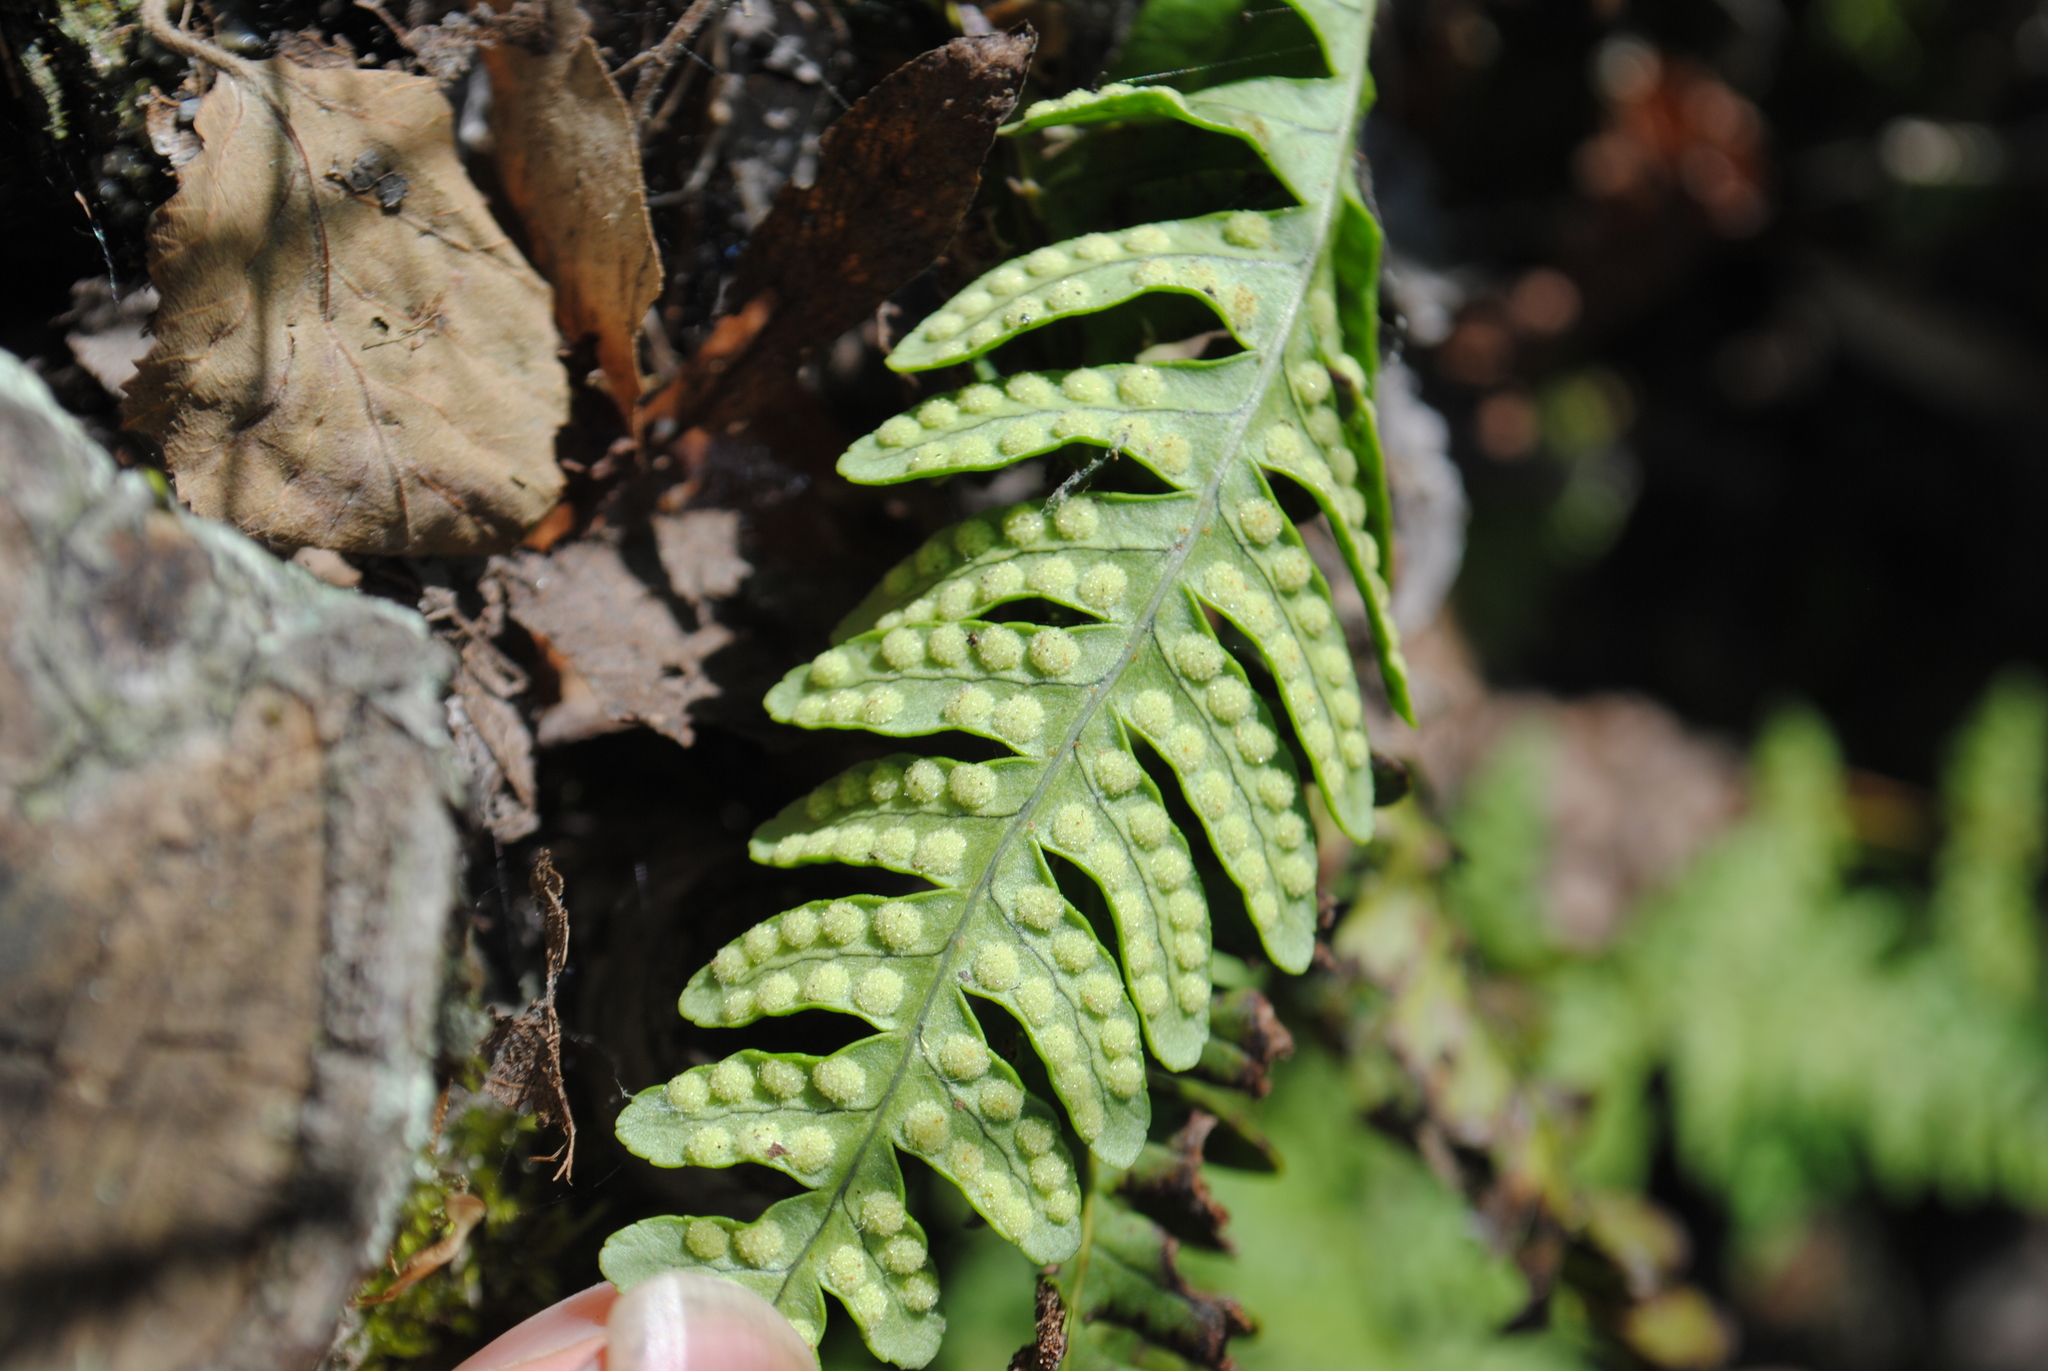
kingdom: Plantae
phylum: Tracheophyta
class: Polypodiopsida
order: Polypodiales
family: Polypodiaceae
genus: Polypodium
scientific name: Polypodium virginianum
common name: American wall fern
